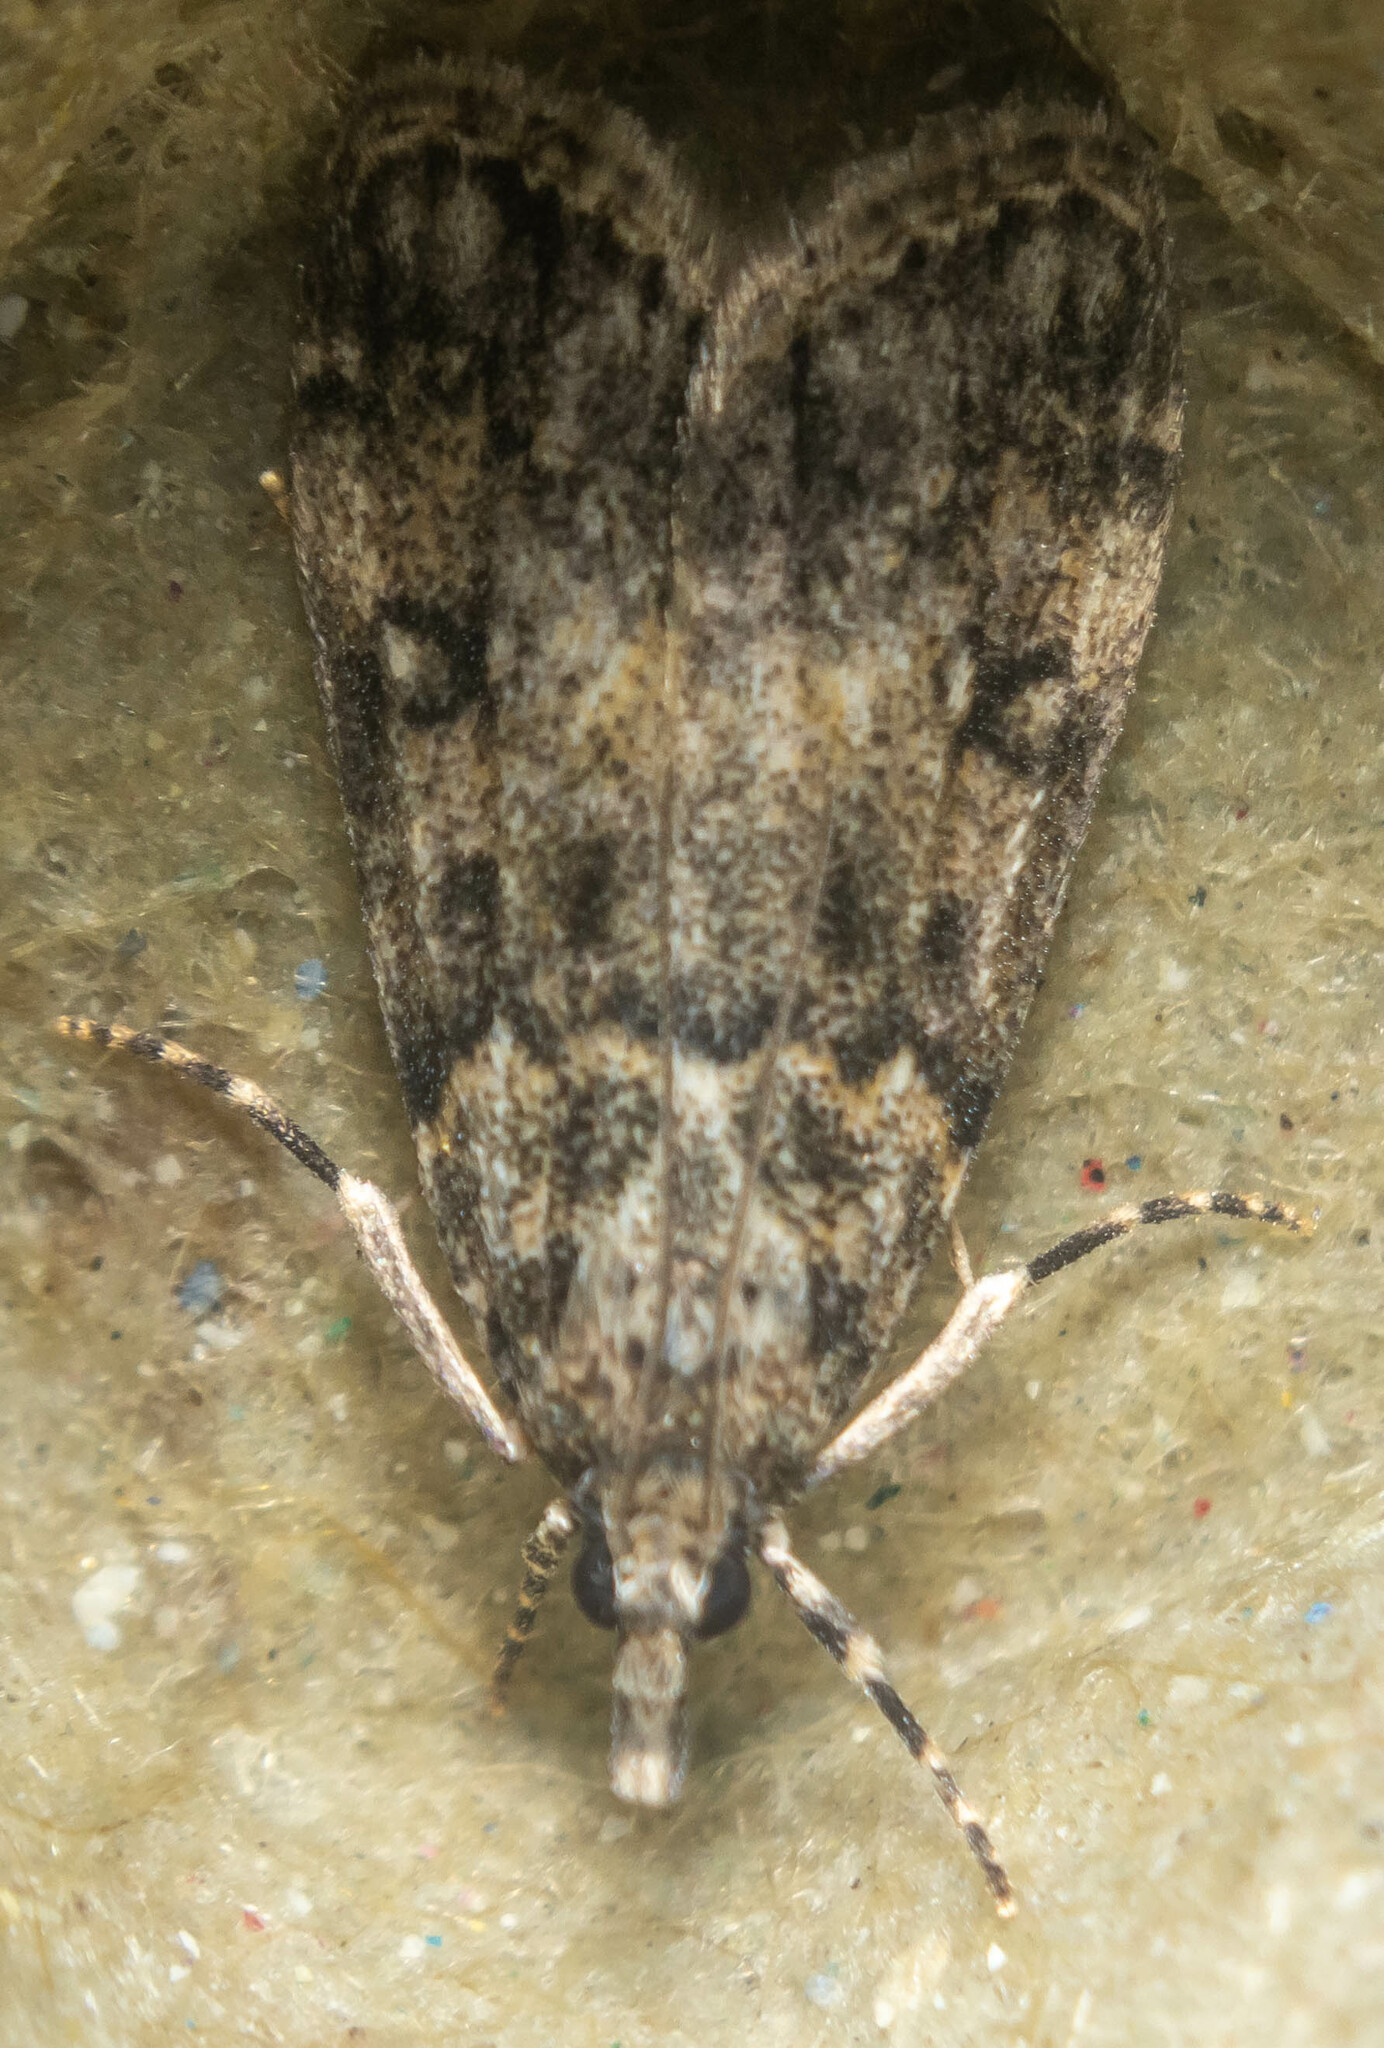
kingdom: Animalia
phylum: Arthropoda
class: Insecta
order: Lepidoptera
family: Crambidae
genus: Scoparia
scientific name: Scoparia ambigualis
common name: Common grey
